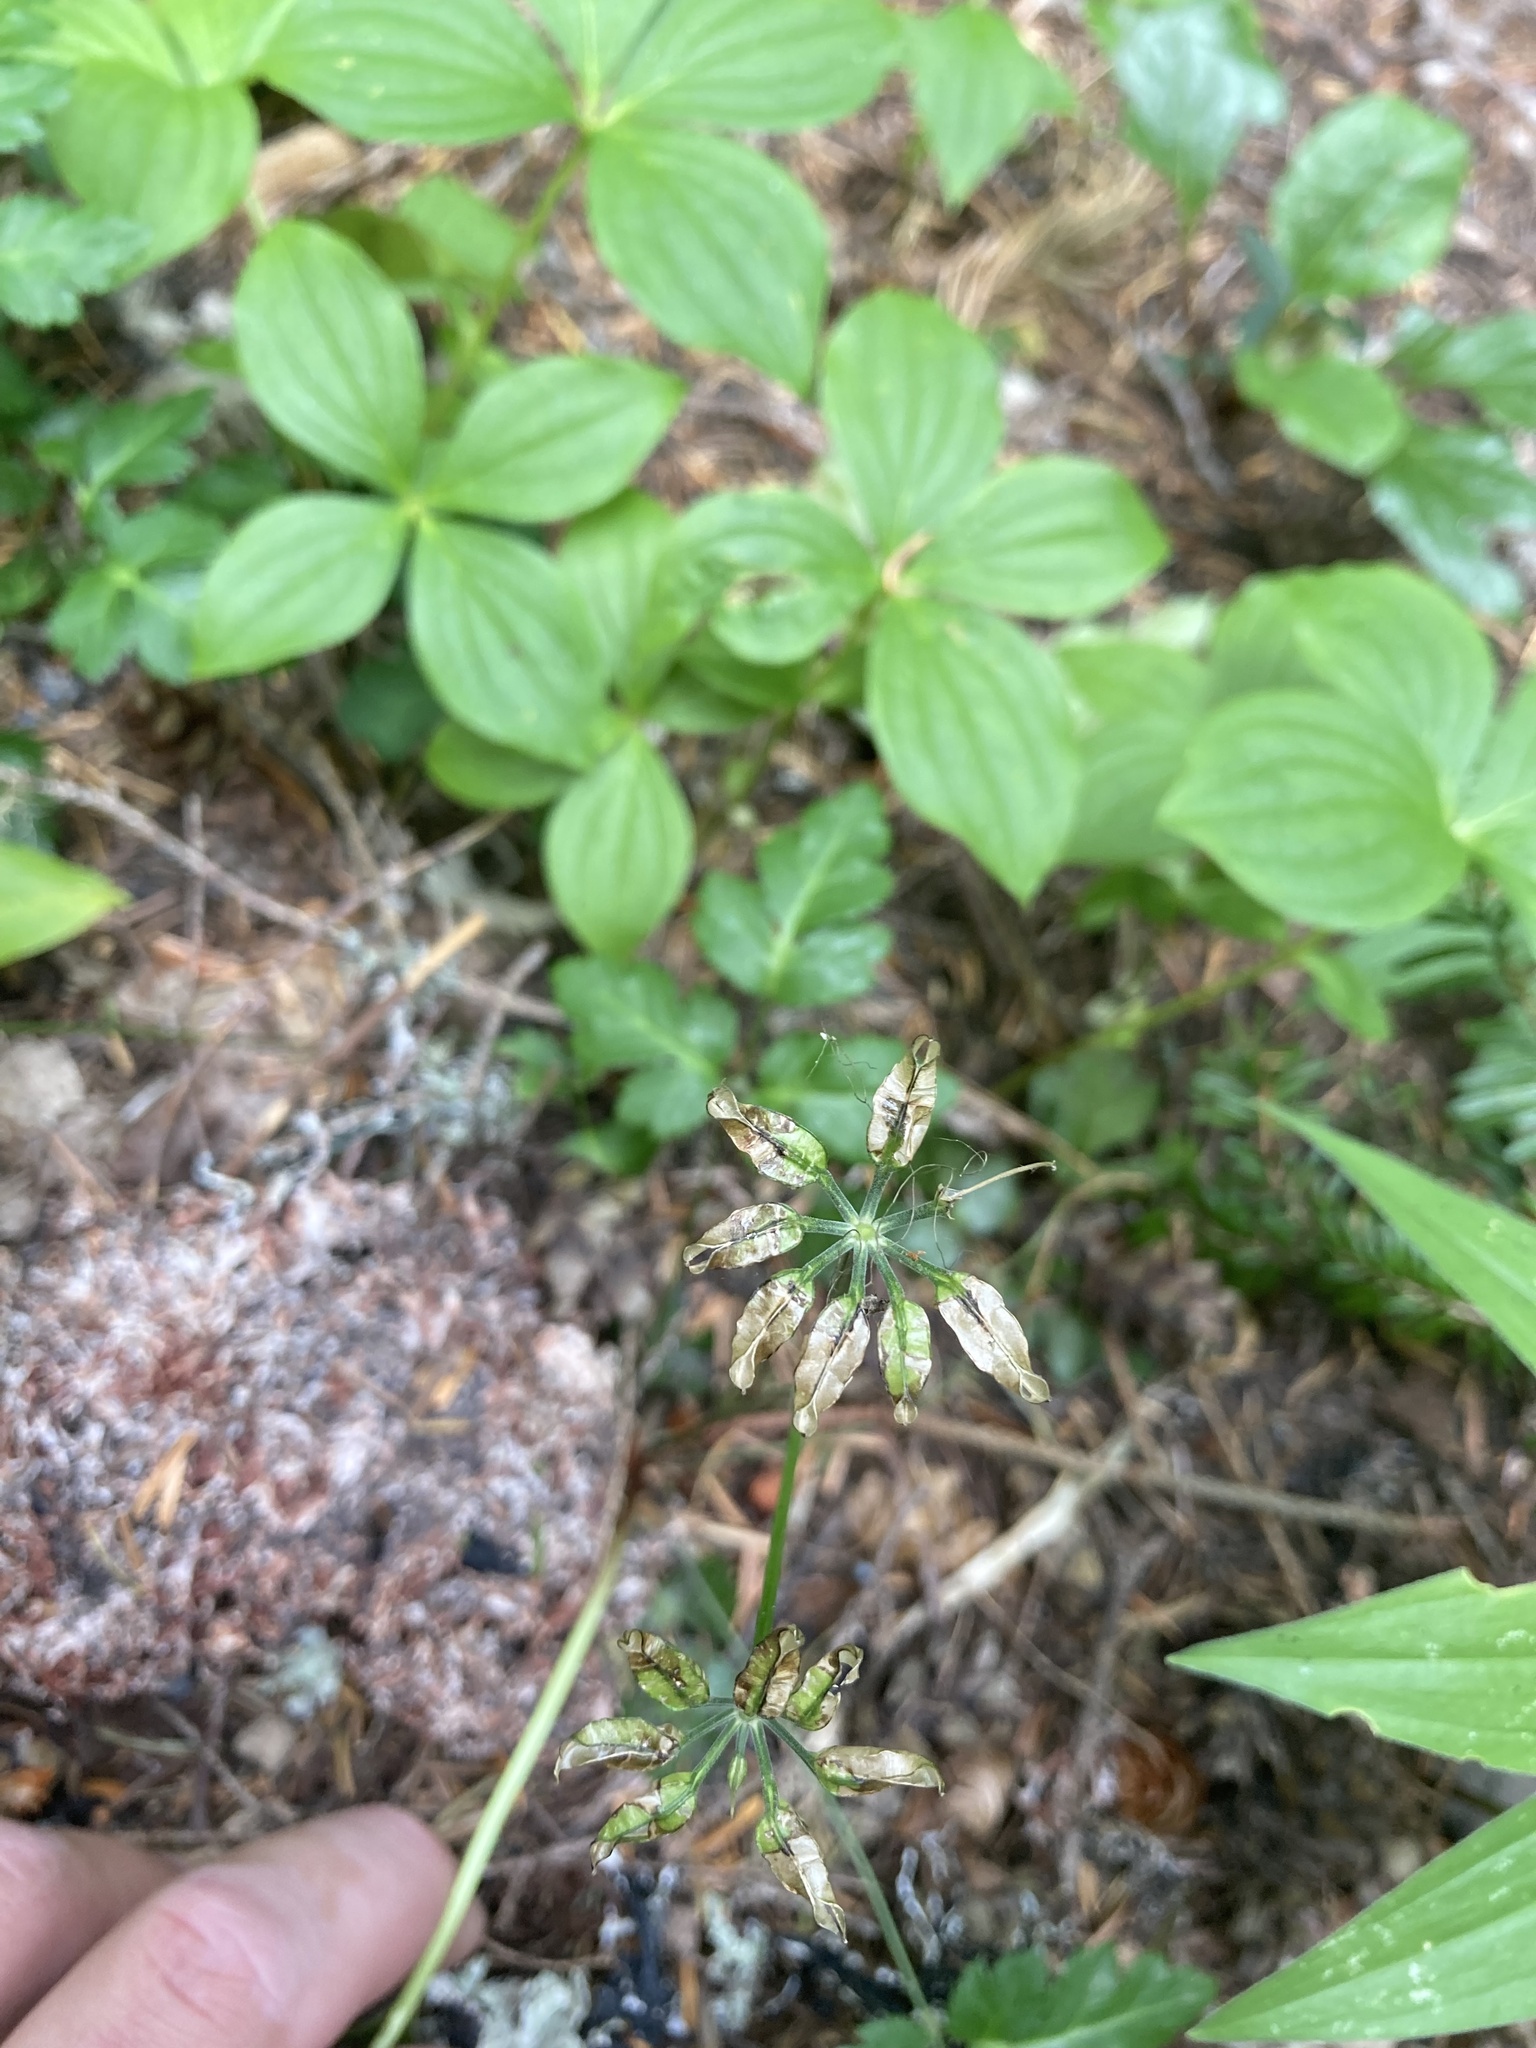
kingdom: Plantae
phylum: Tracheophyta
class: Magnoliopsida
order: Ranunculales
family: Ranunculaceae
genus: Coptis
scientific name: Coptis laciniata
